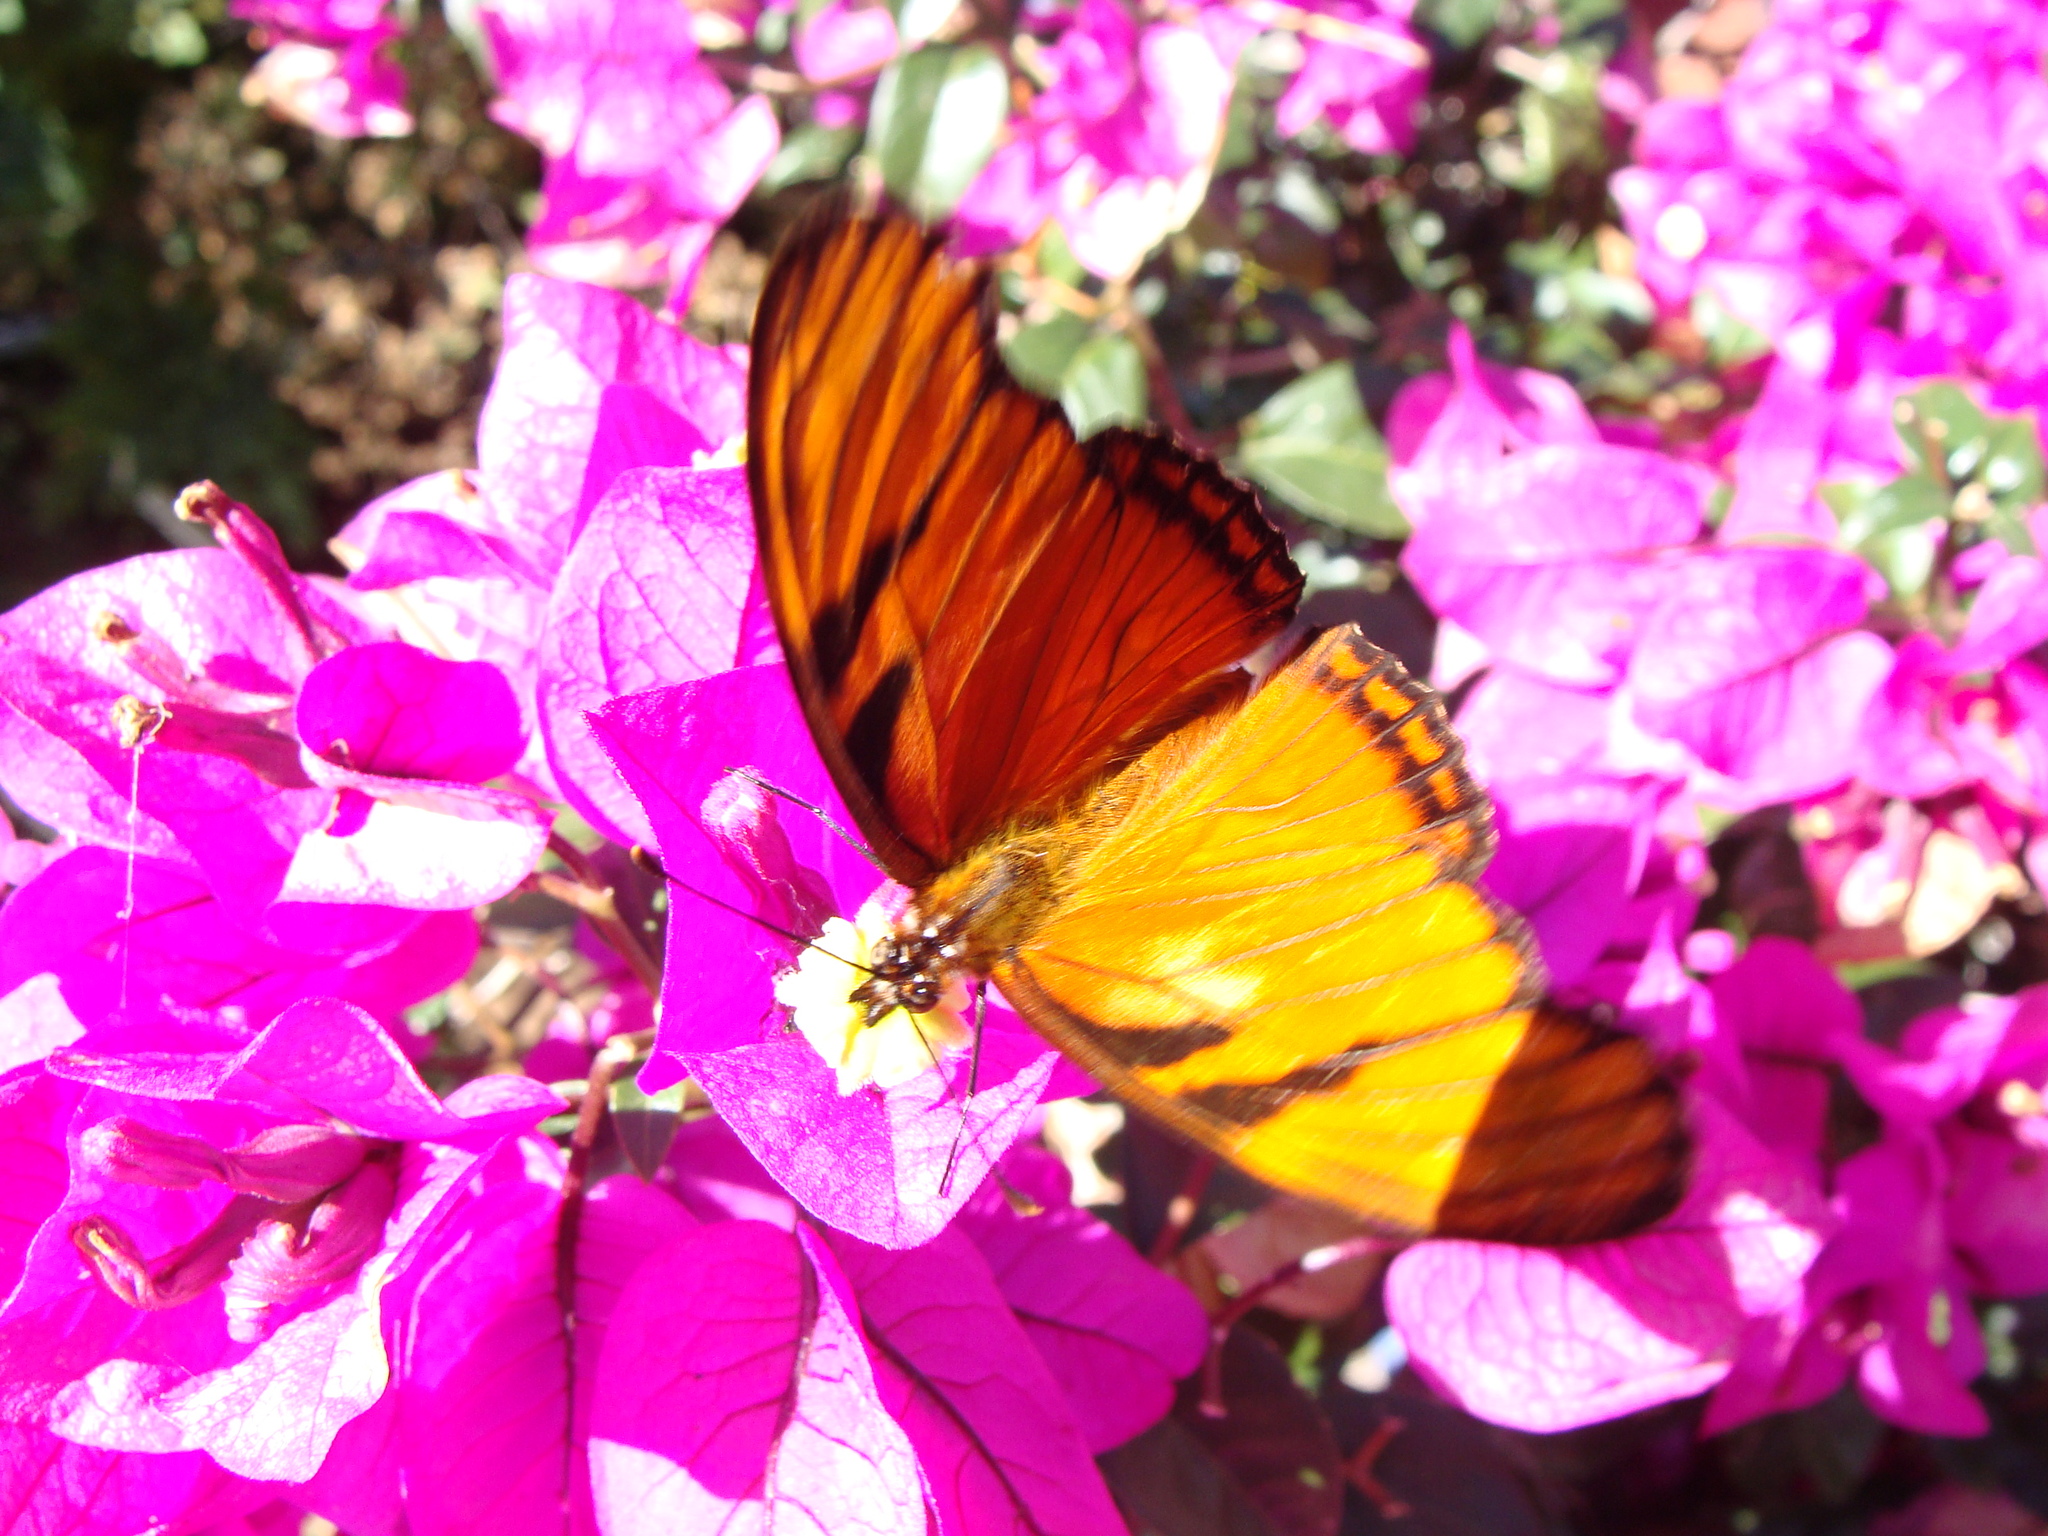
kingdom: Animalia
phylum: Arthropoda
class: Insecta
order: Lepidoptera
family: Nymphalidae
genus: Dione
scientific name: Dione juno
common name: Juno silverspot
